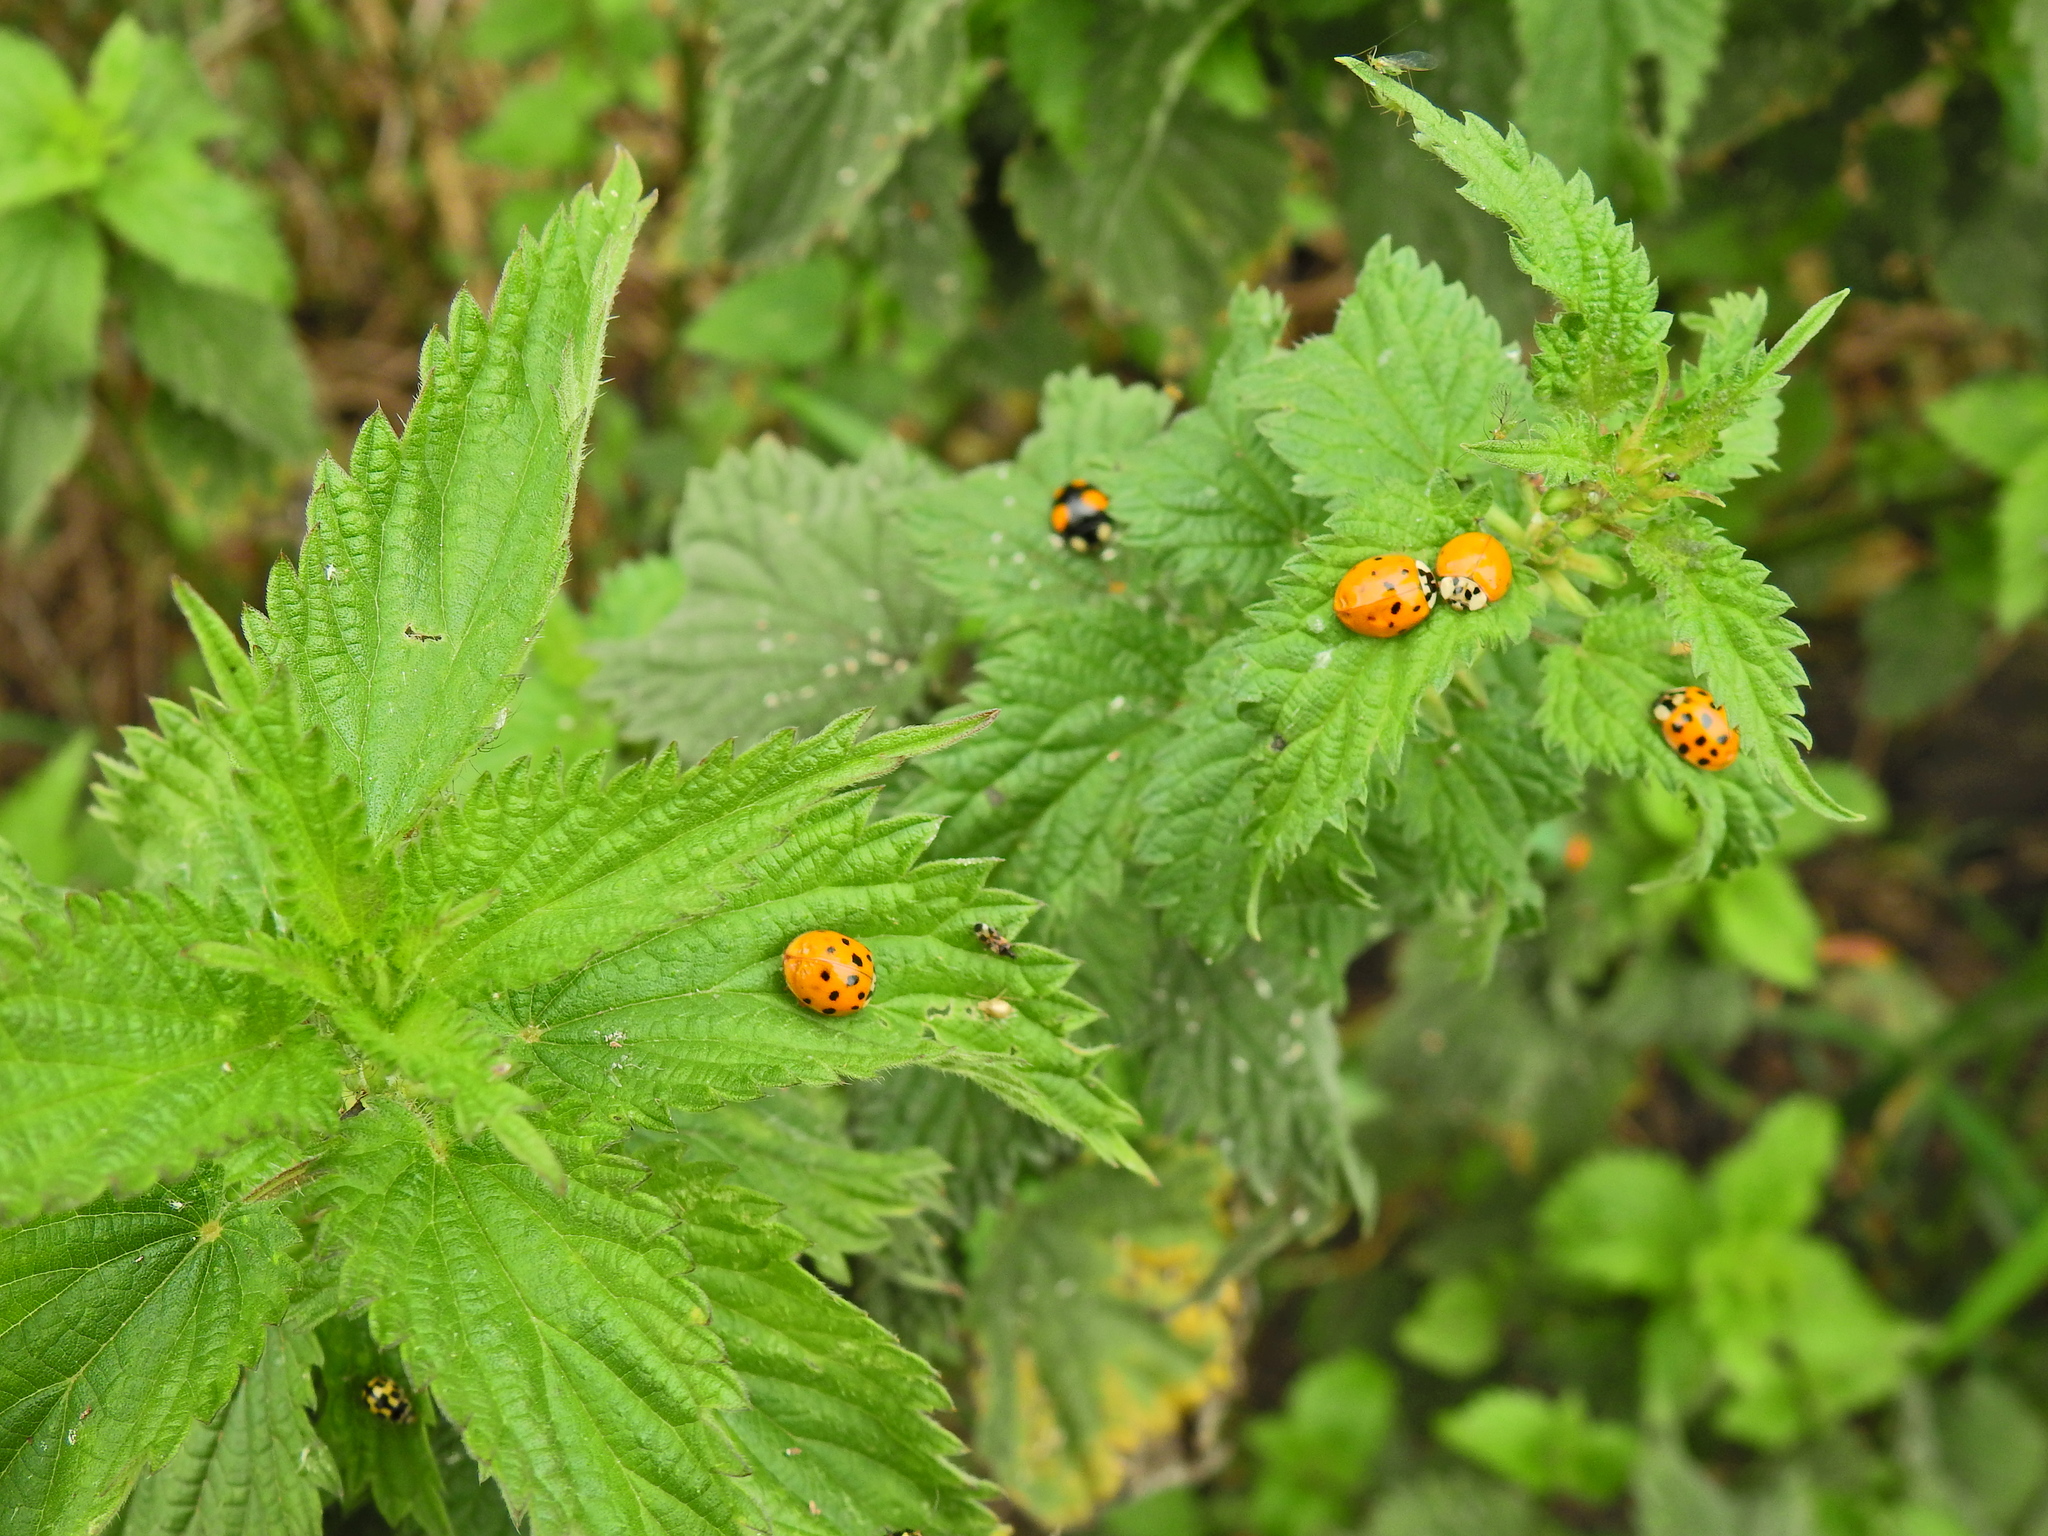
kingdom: Animalia
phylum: Arthropoda
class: Insecta
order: Coleoptera
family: Coccinellidae
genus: Harmonia
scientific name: Harmonia axyridis
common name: Harlequin ladybird
